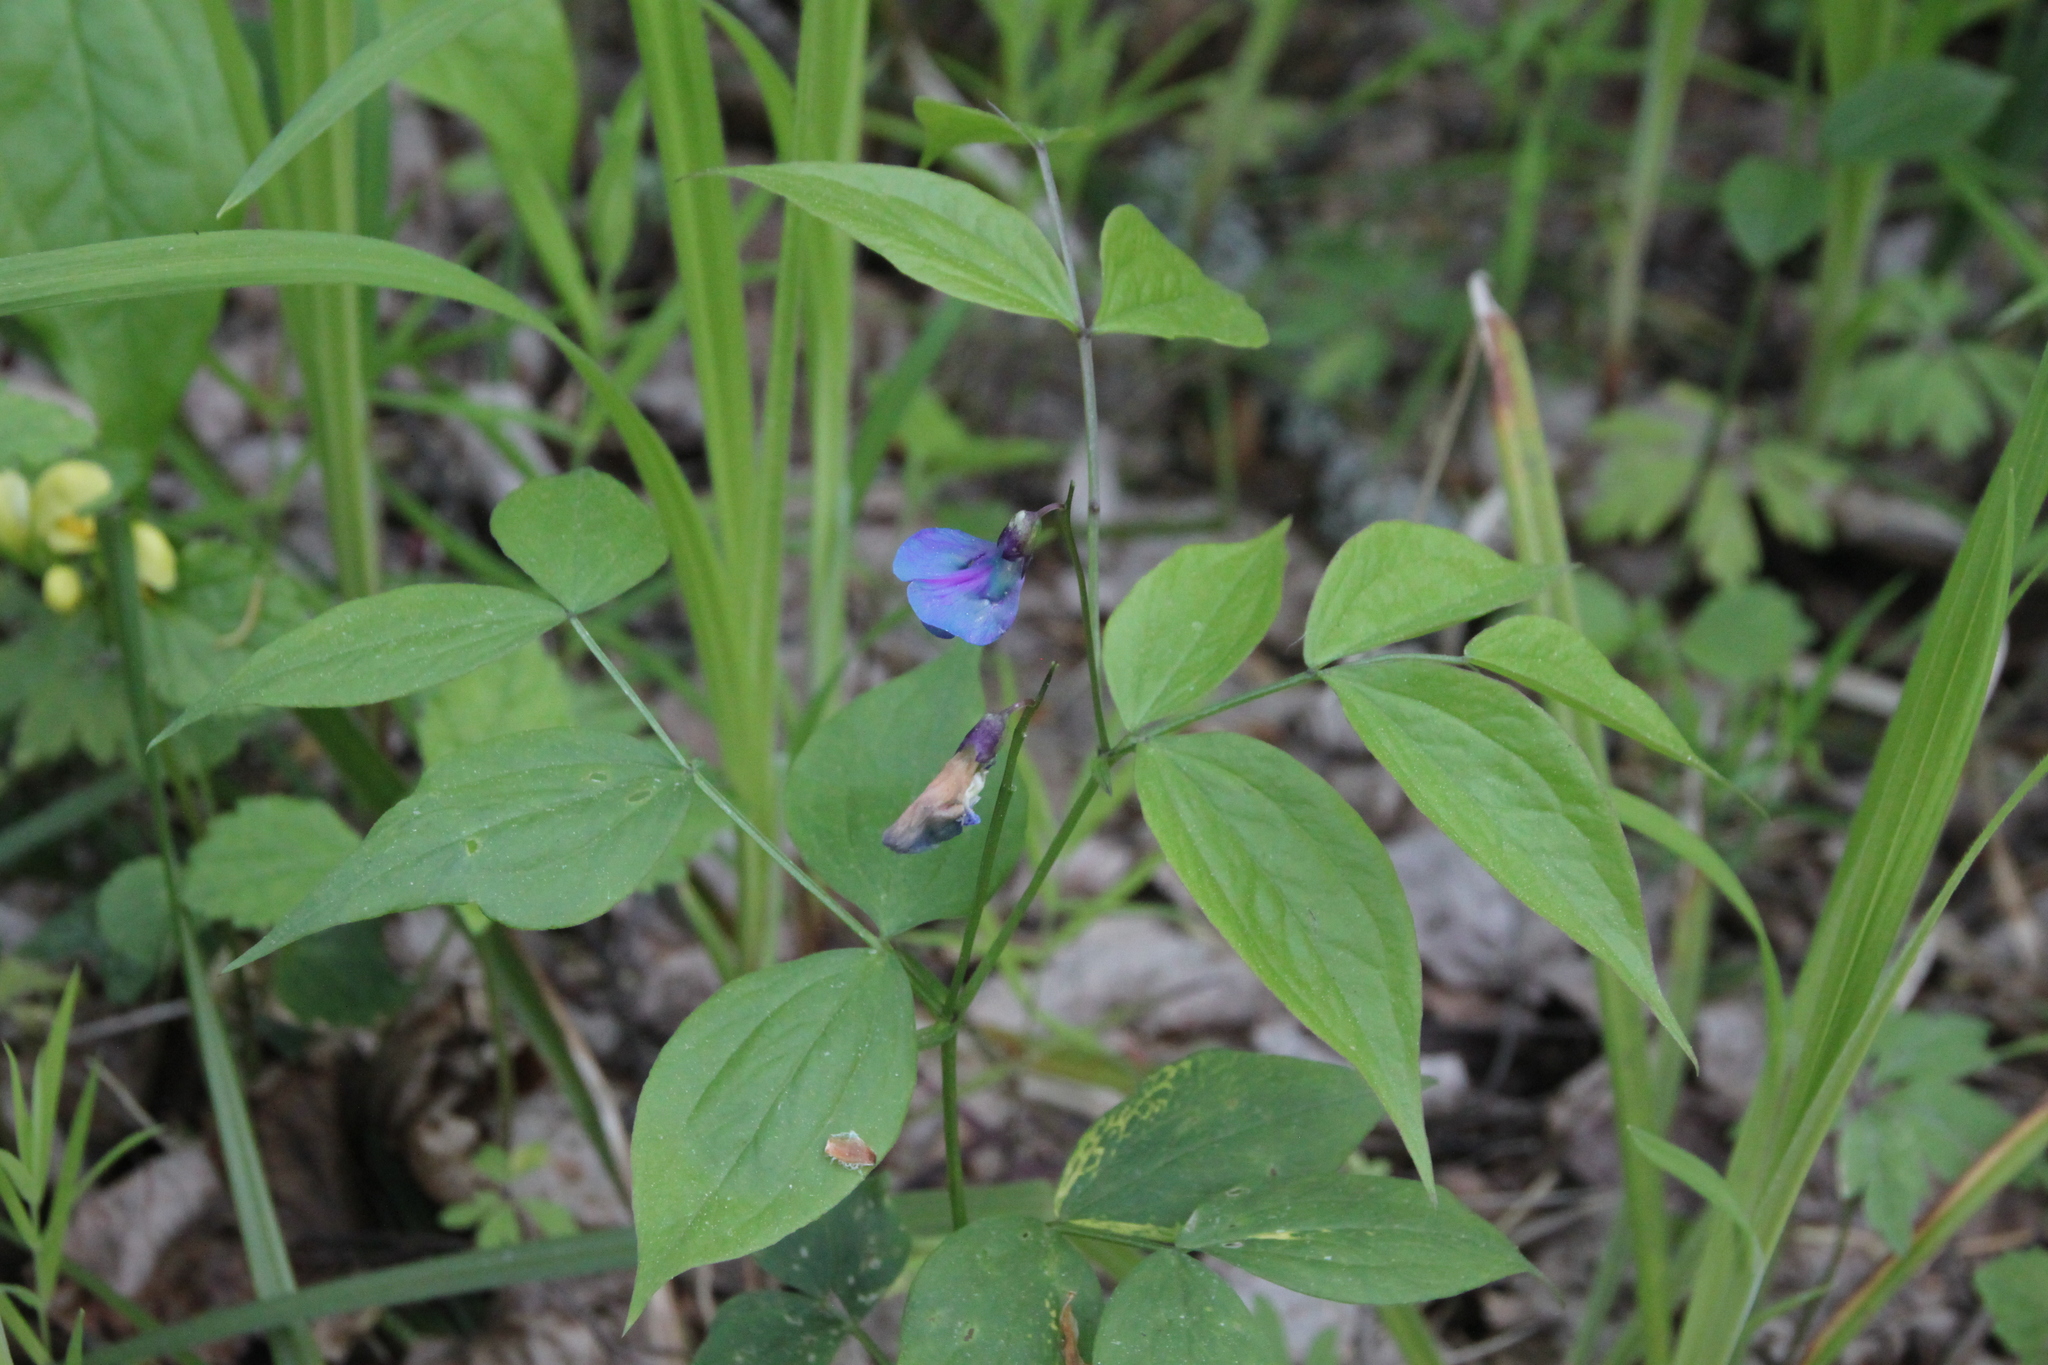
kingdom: Plantae
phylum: Tracheophyta
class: Magnoliopsida
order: Fabales
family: Fabaceae
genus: Lathyrus
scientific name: Lathyrus vernus
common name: Spring pea
